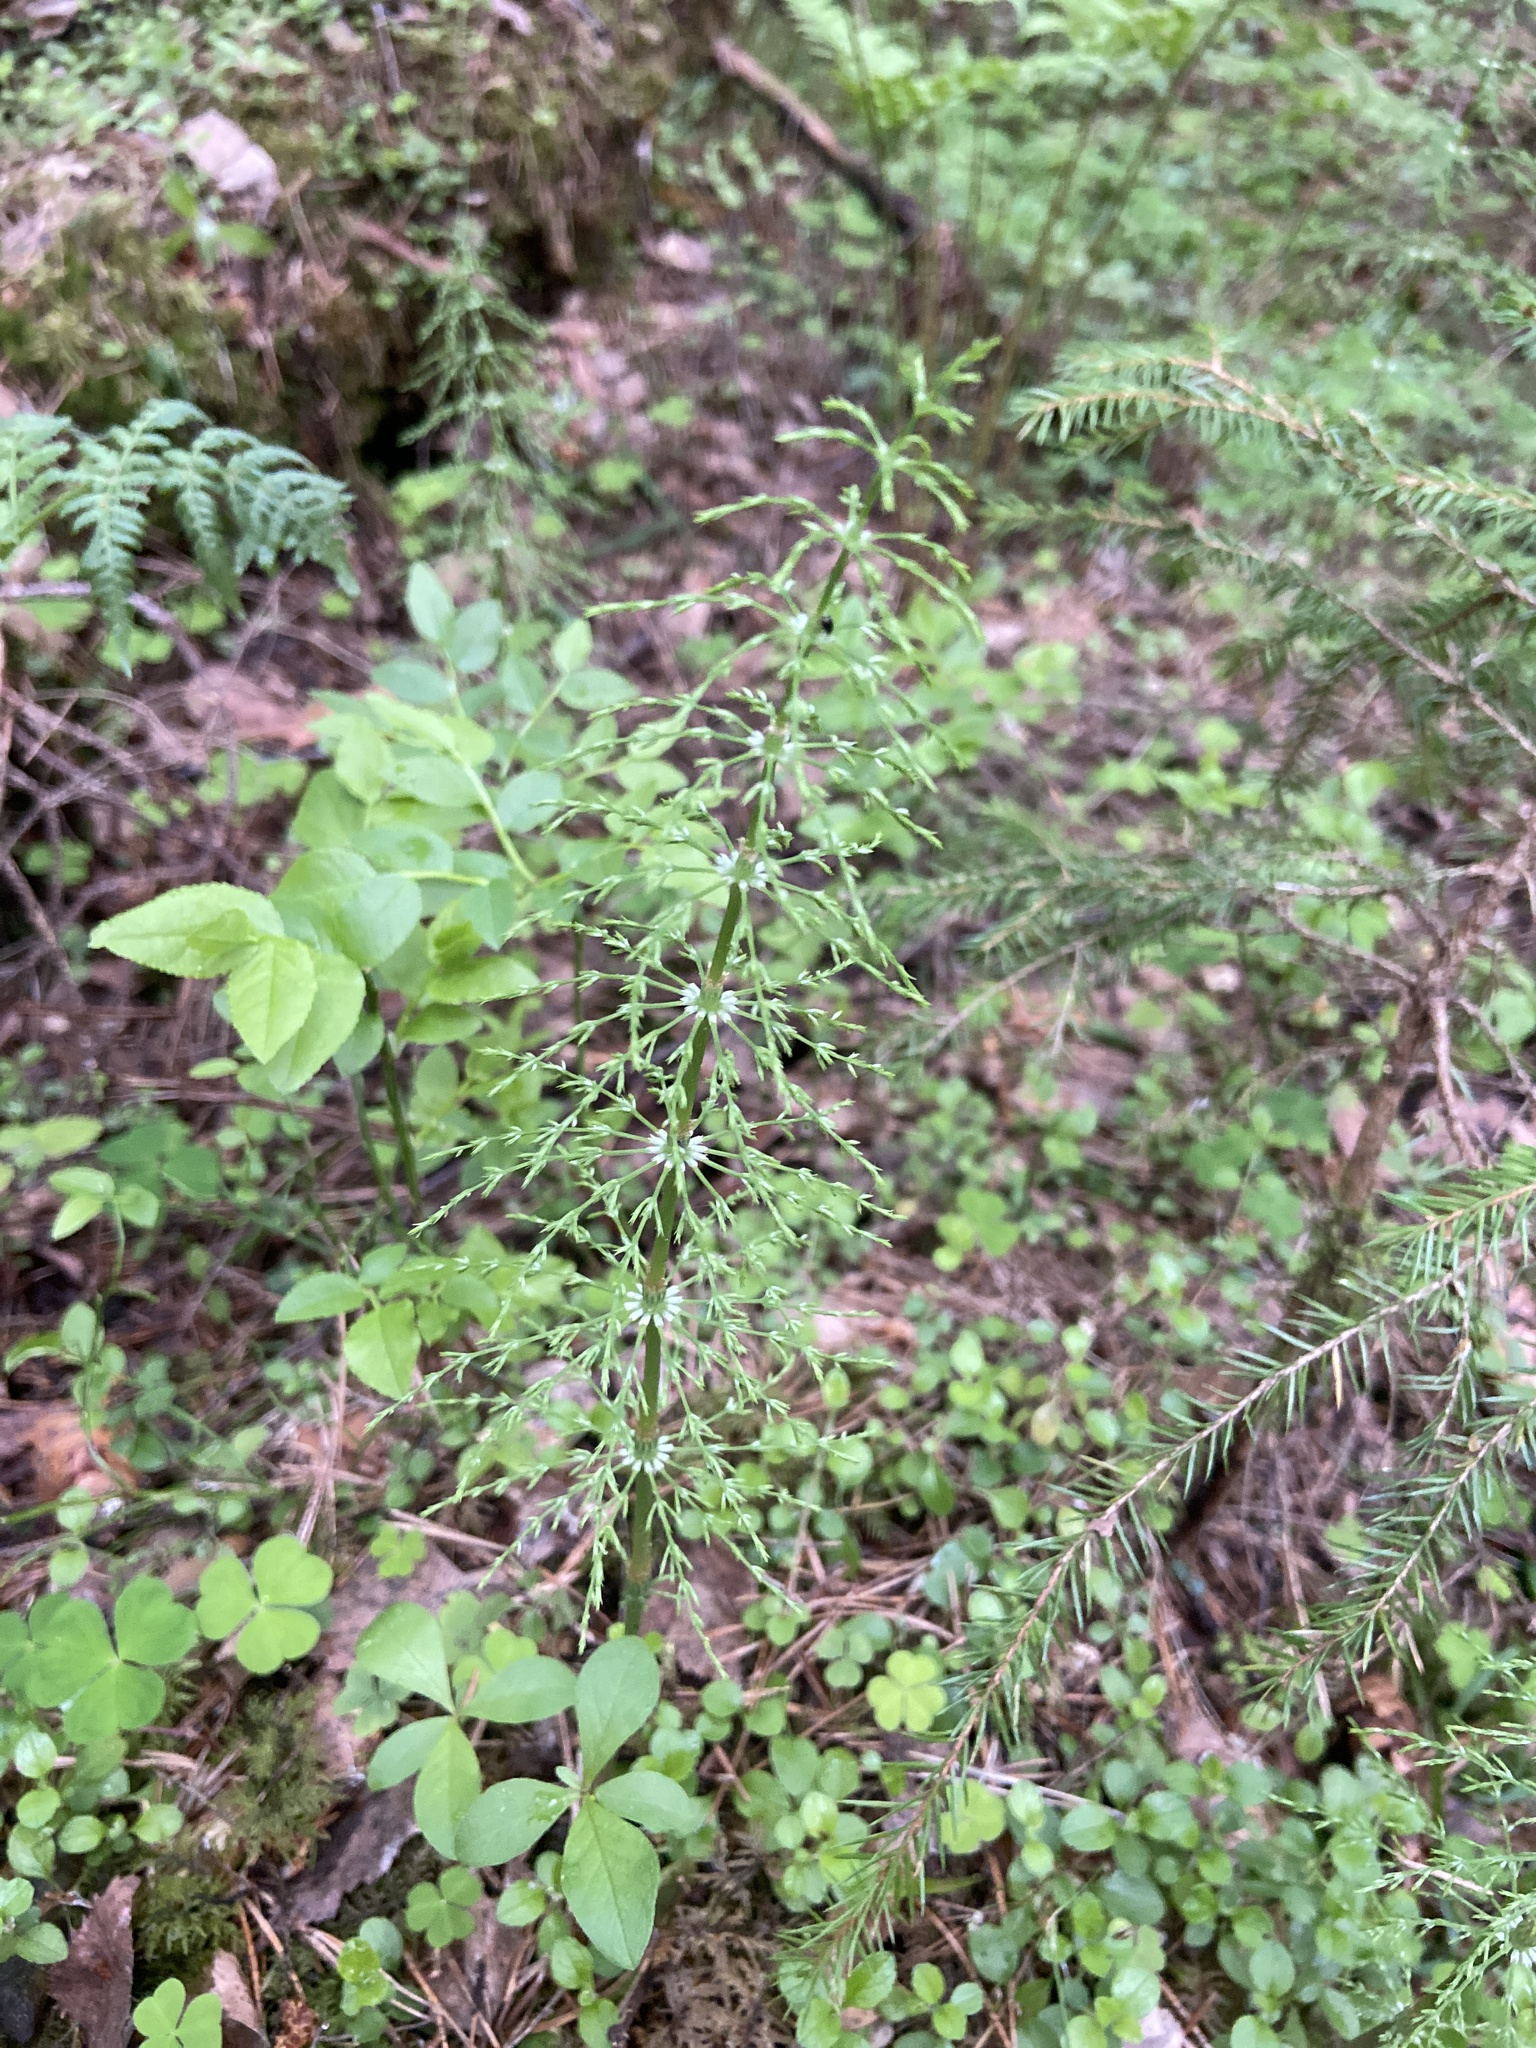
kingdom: Plantae
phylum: Tracheophyta
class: Polypodiopsida
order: Equisetales
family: Equisetaceae
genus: Equisetum
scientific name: Equisetum sylvaticum
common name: Wood horsetail
